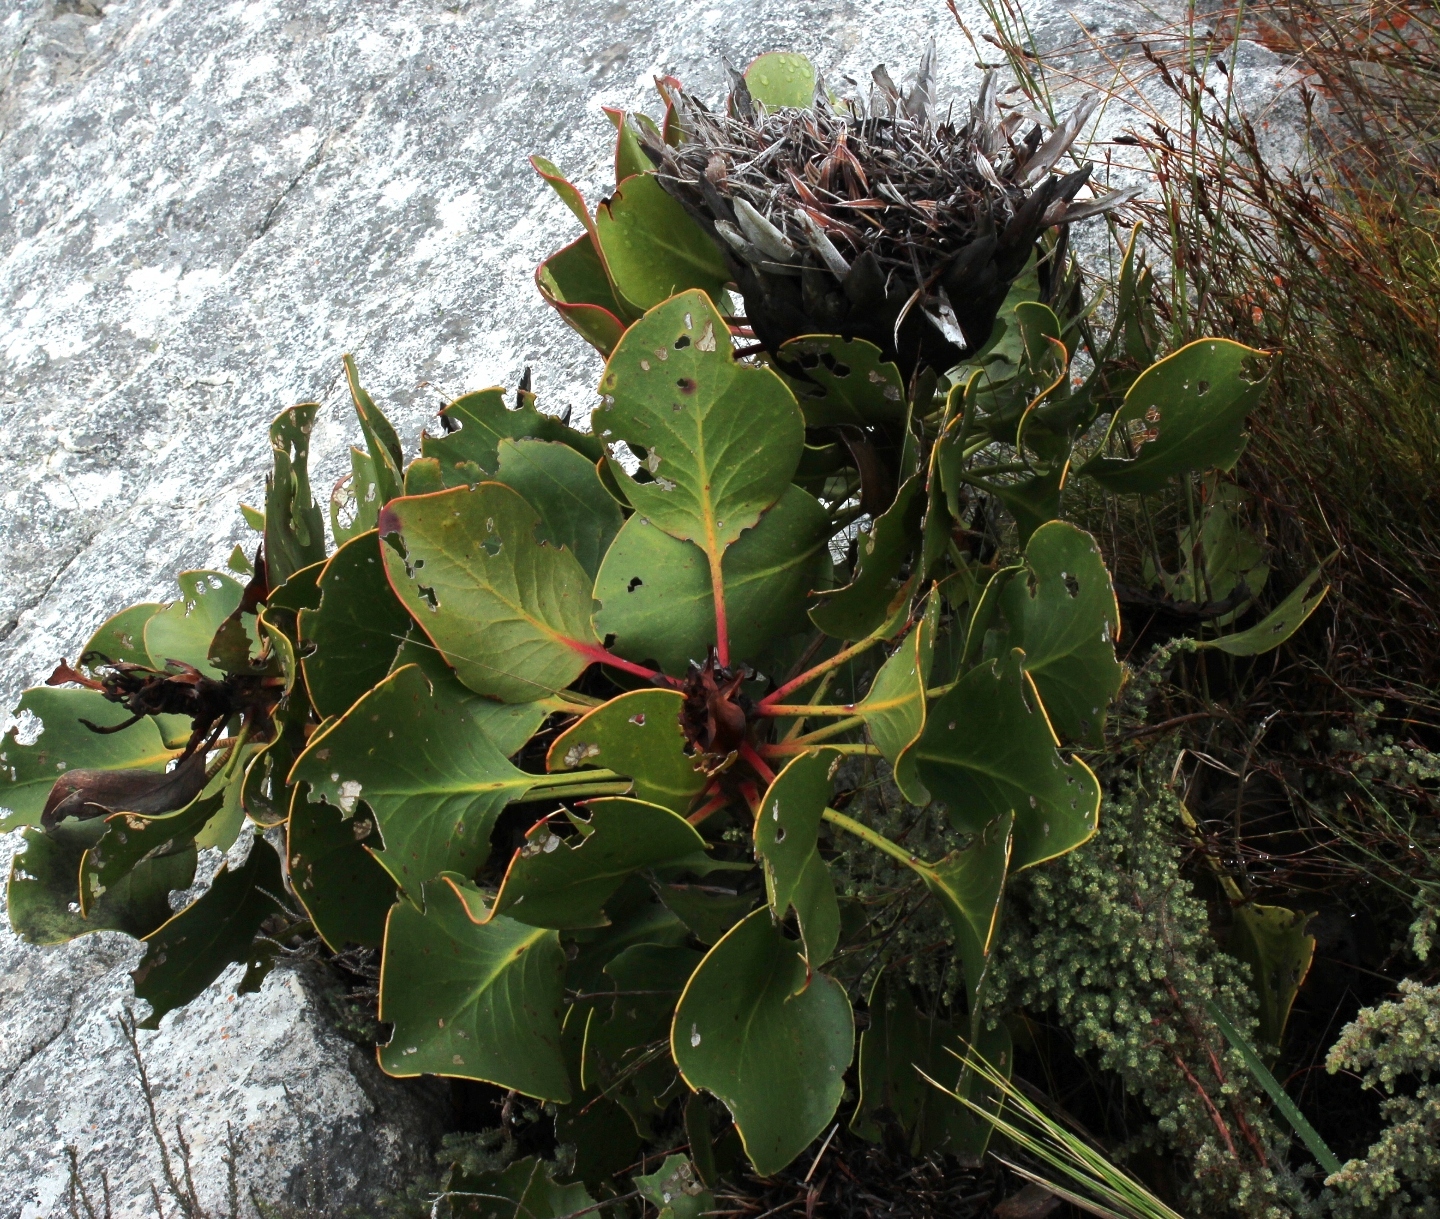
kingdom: Plantae
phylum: Tracheophyta
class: Magnoliopsida
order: Proteales
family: Proteaceae
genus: Protea
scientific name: Protea cynaroides
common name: King protea
